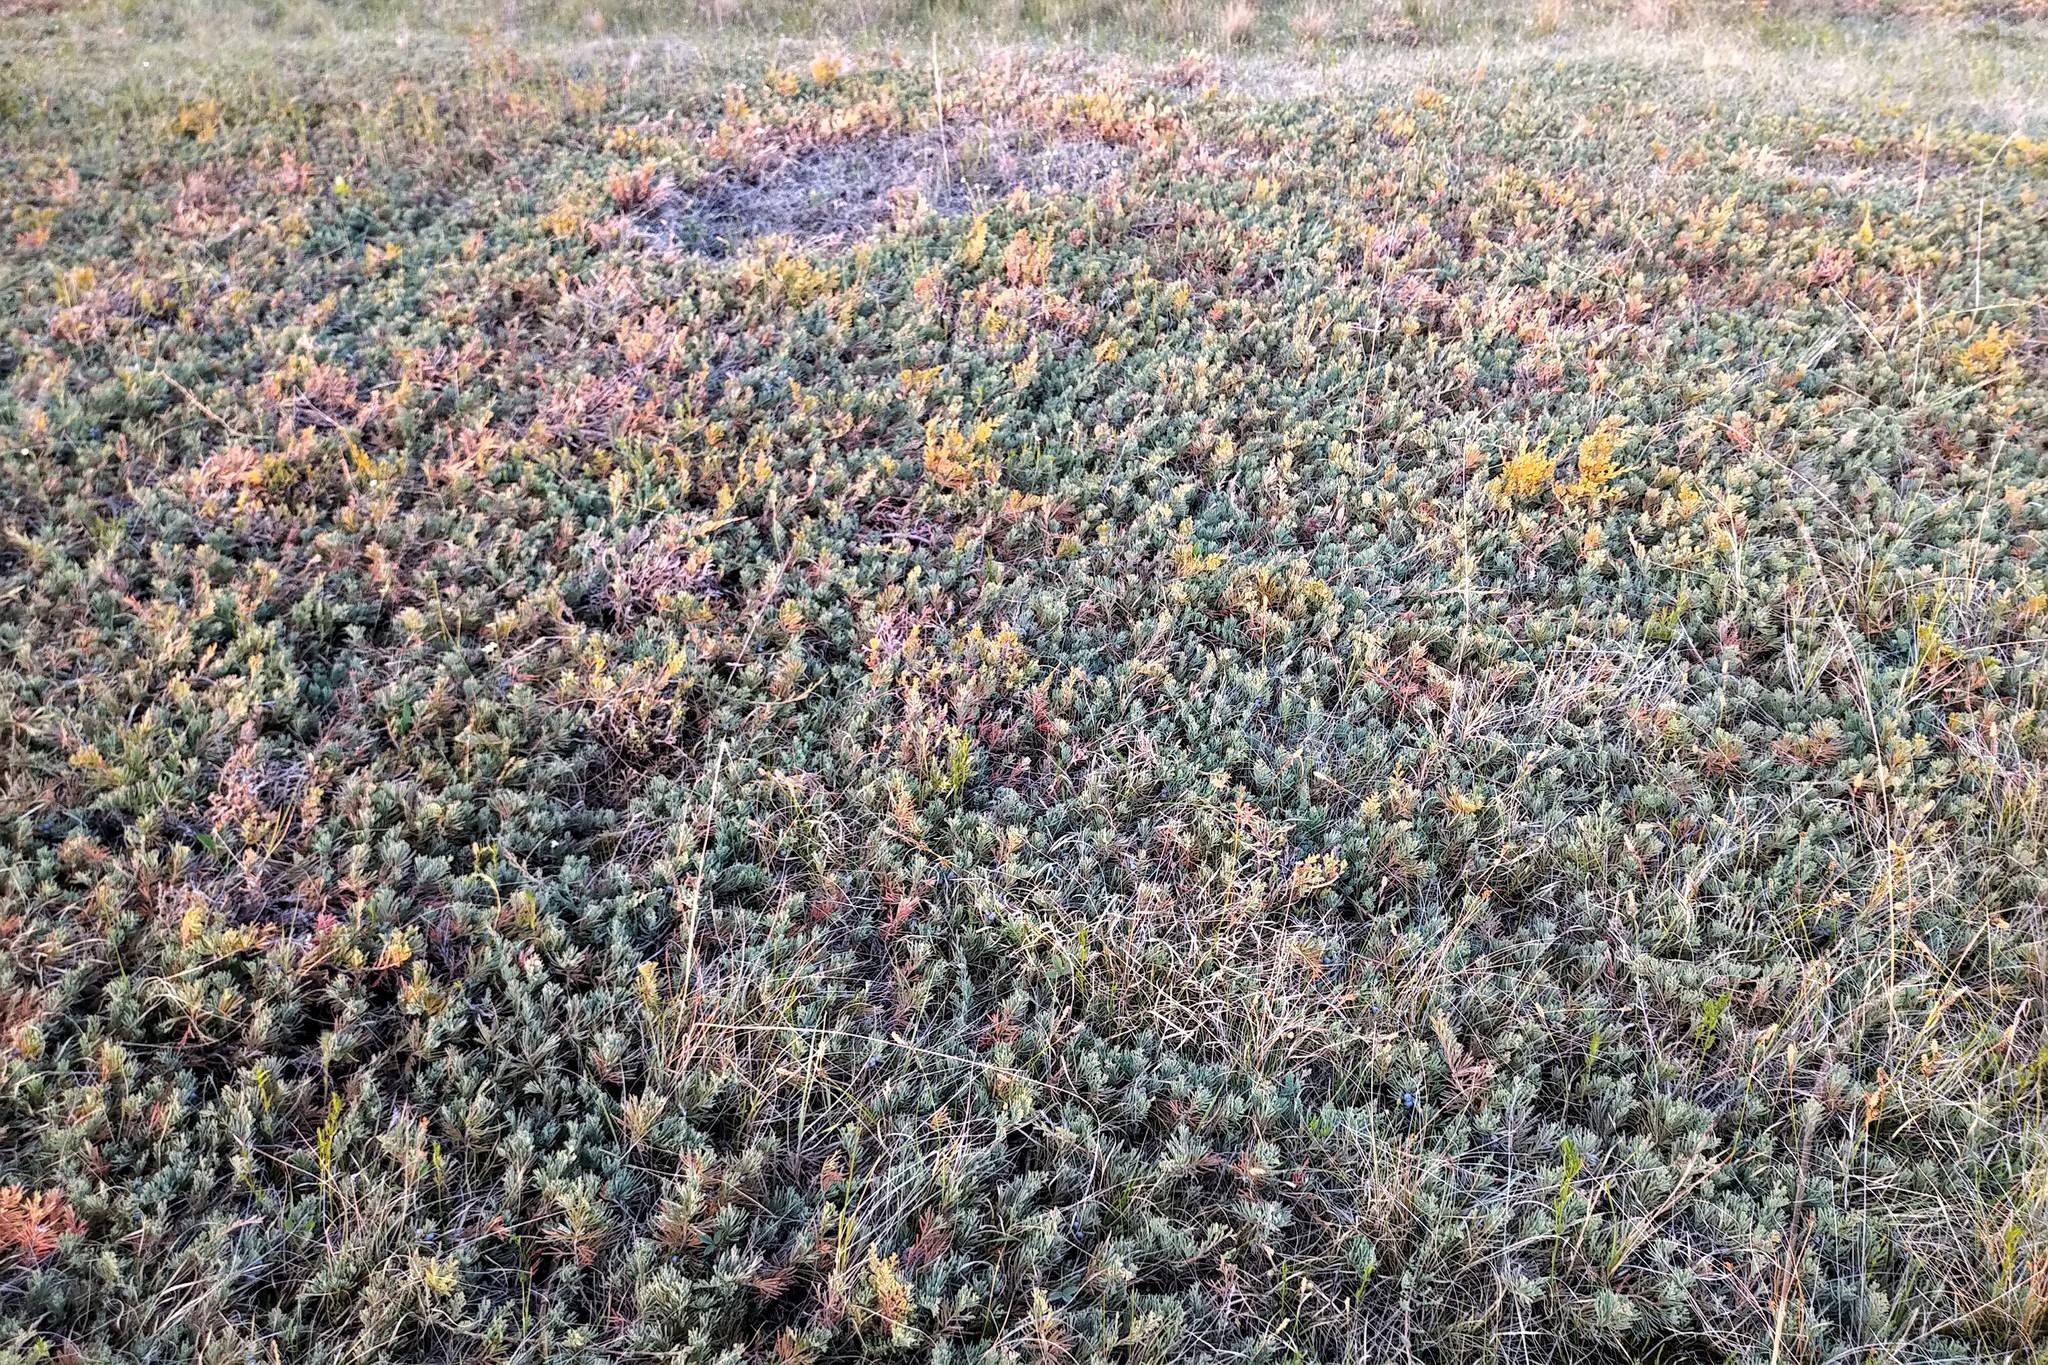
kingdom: Plantae
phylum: Tracheophyta
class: Pinopsida
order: Pinales
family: Cupressaceae
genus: Juniperus
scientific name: Juniperus horizontalis
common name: Creeping juniper
